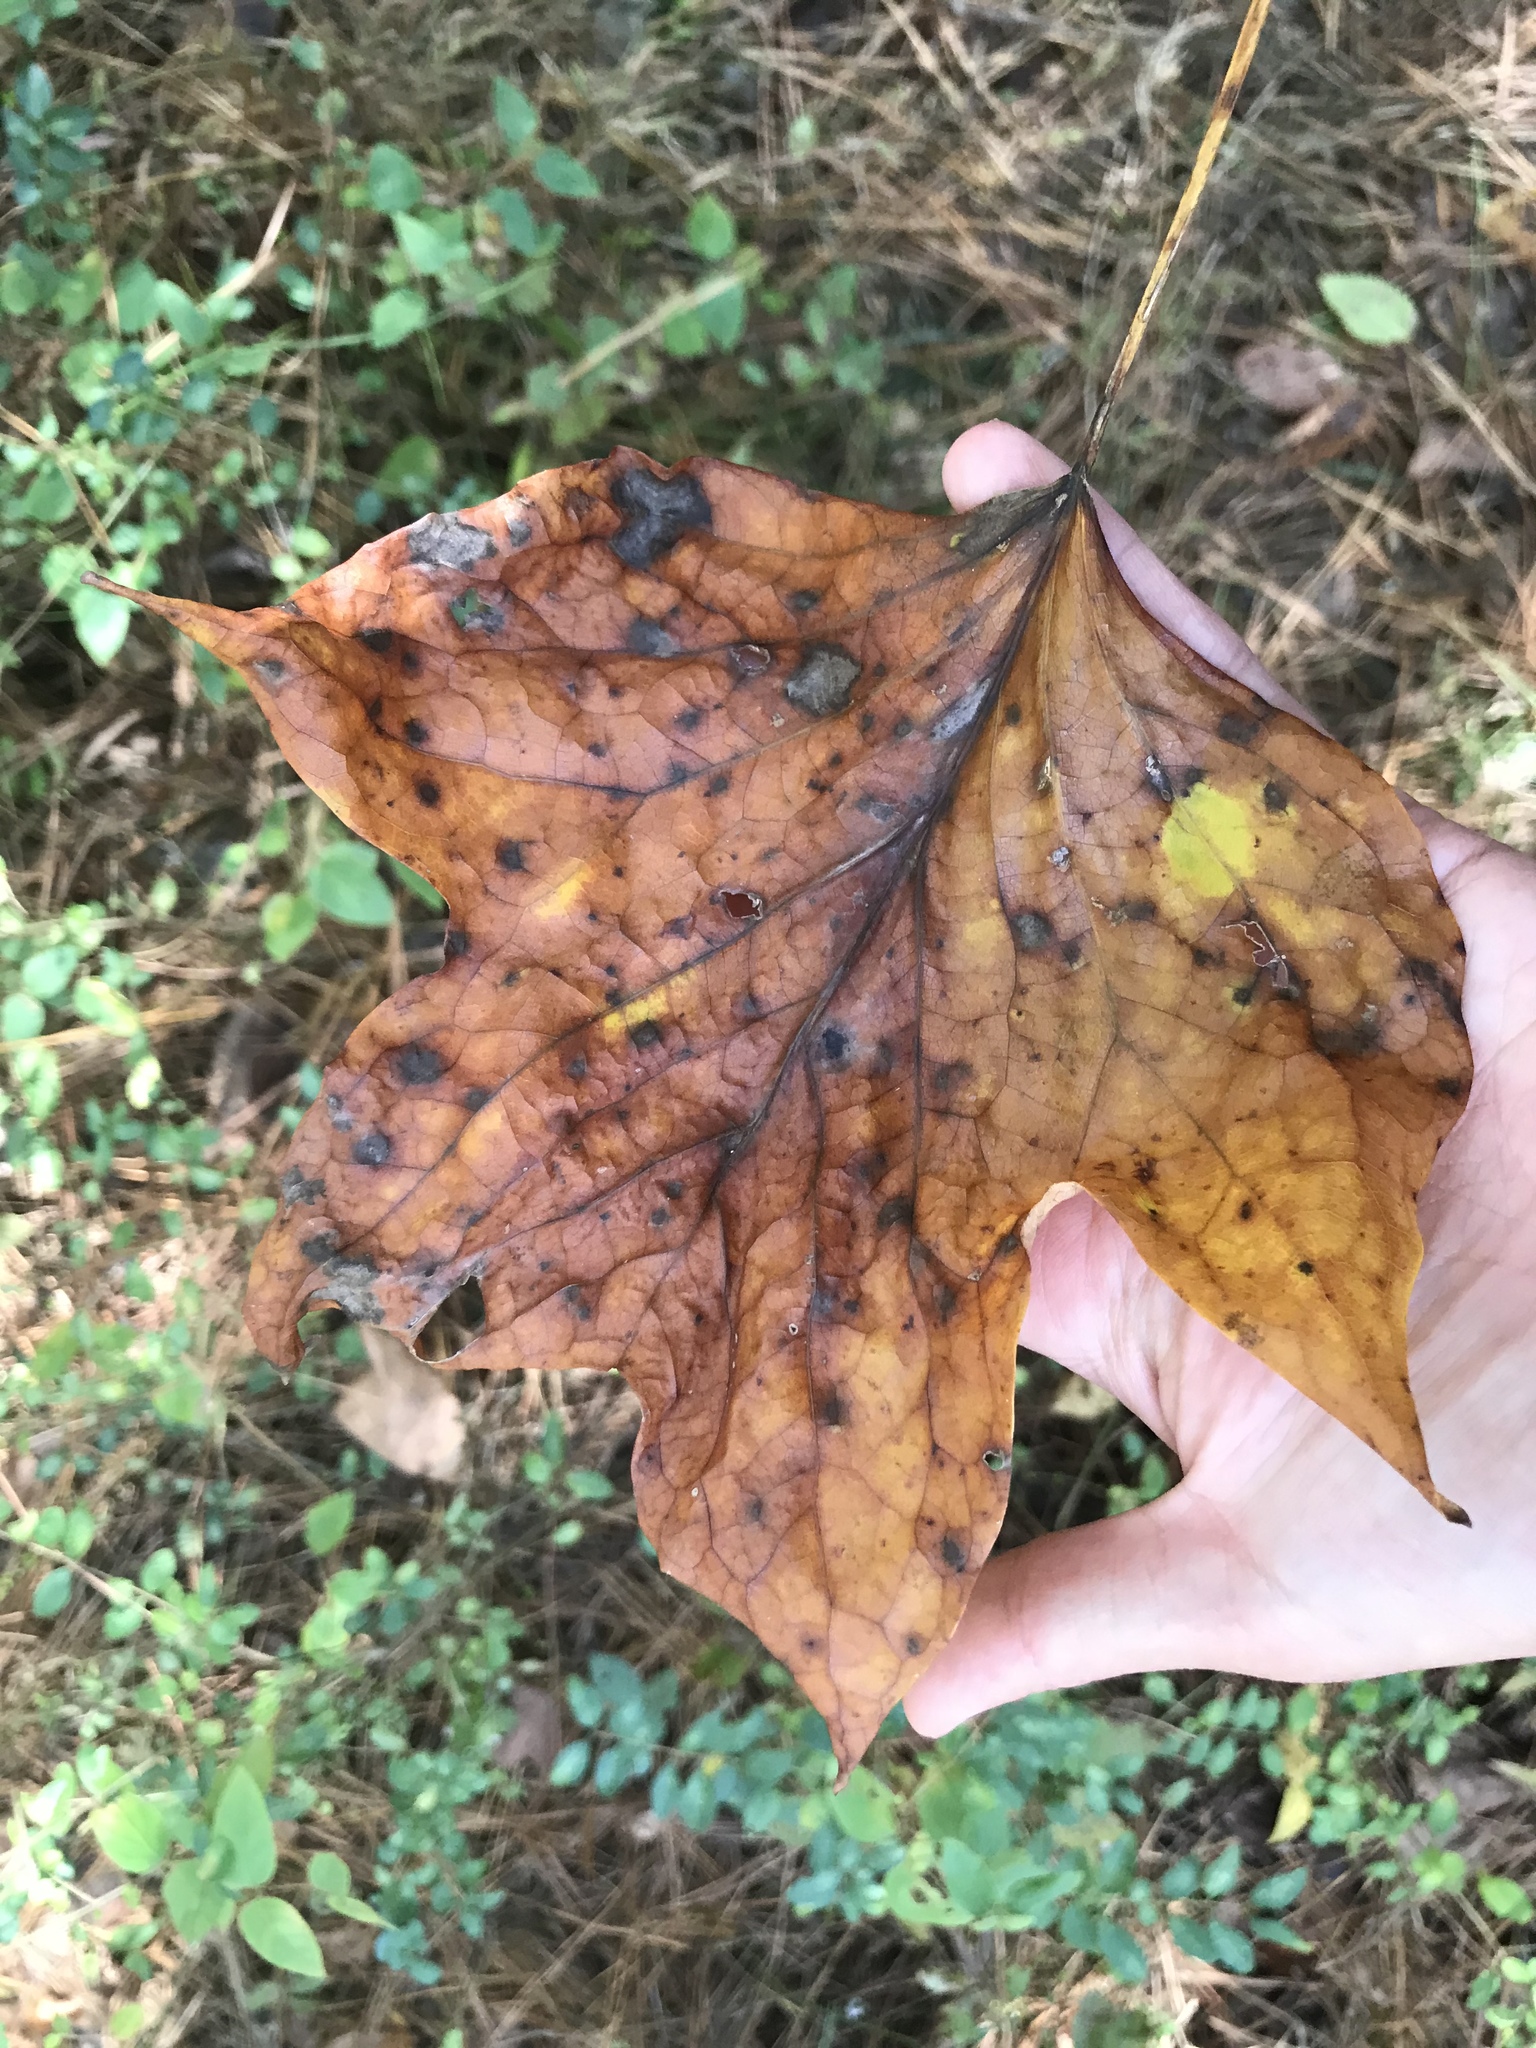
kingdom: Plantae
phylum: Tracheophyta
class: Magnoliopsida
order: Magnoliales
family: Magnoliaceae
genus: Liriodendron
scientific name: Liriodendron tulipifera
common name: Tulip tree
